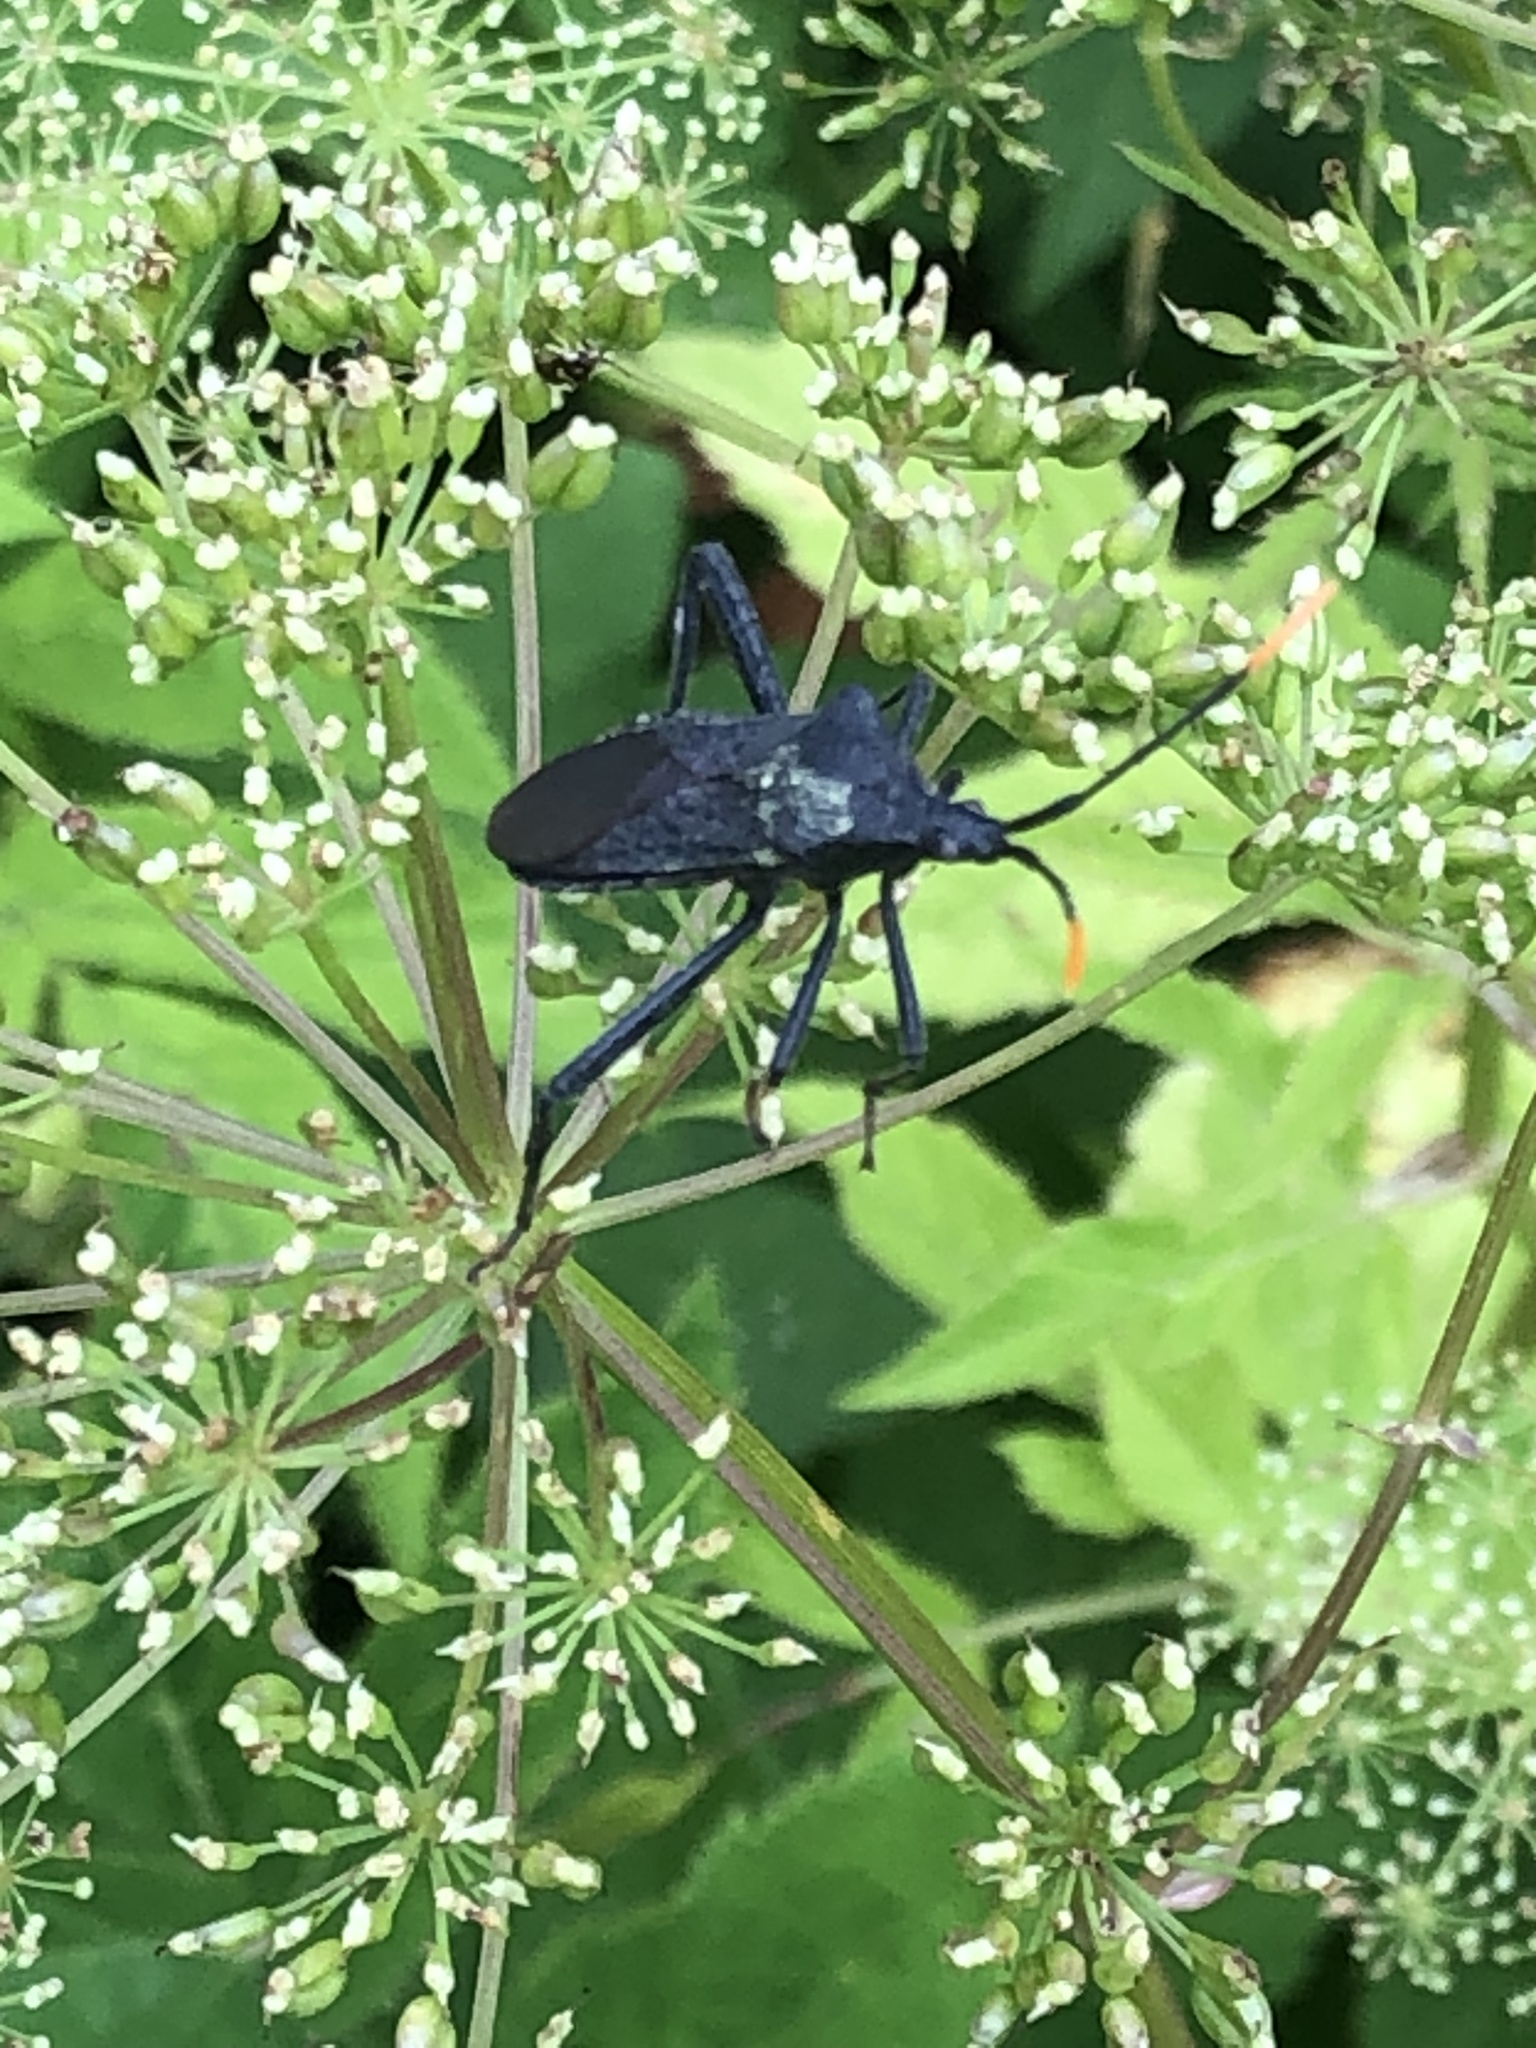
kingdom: Animalia
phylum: Arthropoda
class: Insecta
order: Hemiptera
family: Coreidae
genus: Acanthocephala
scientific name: Acanthocephala terminalis
